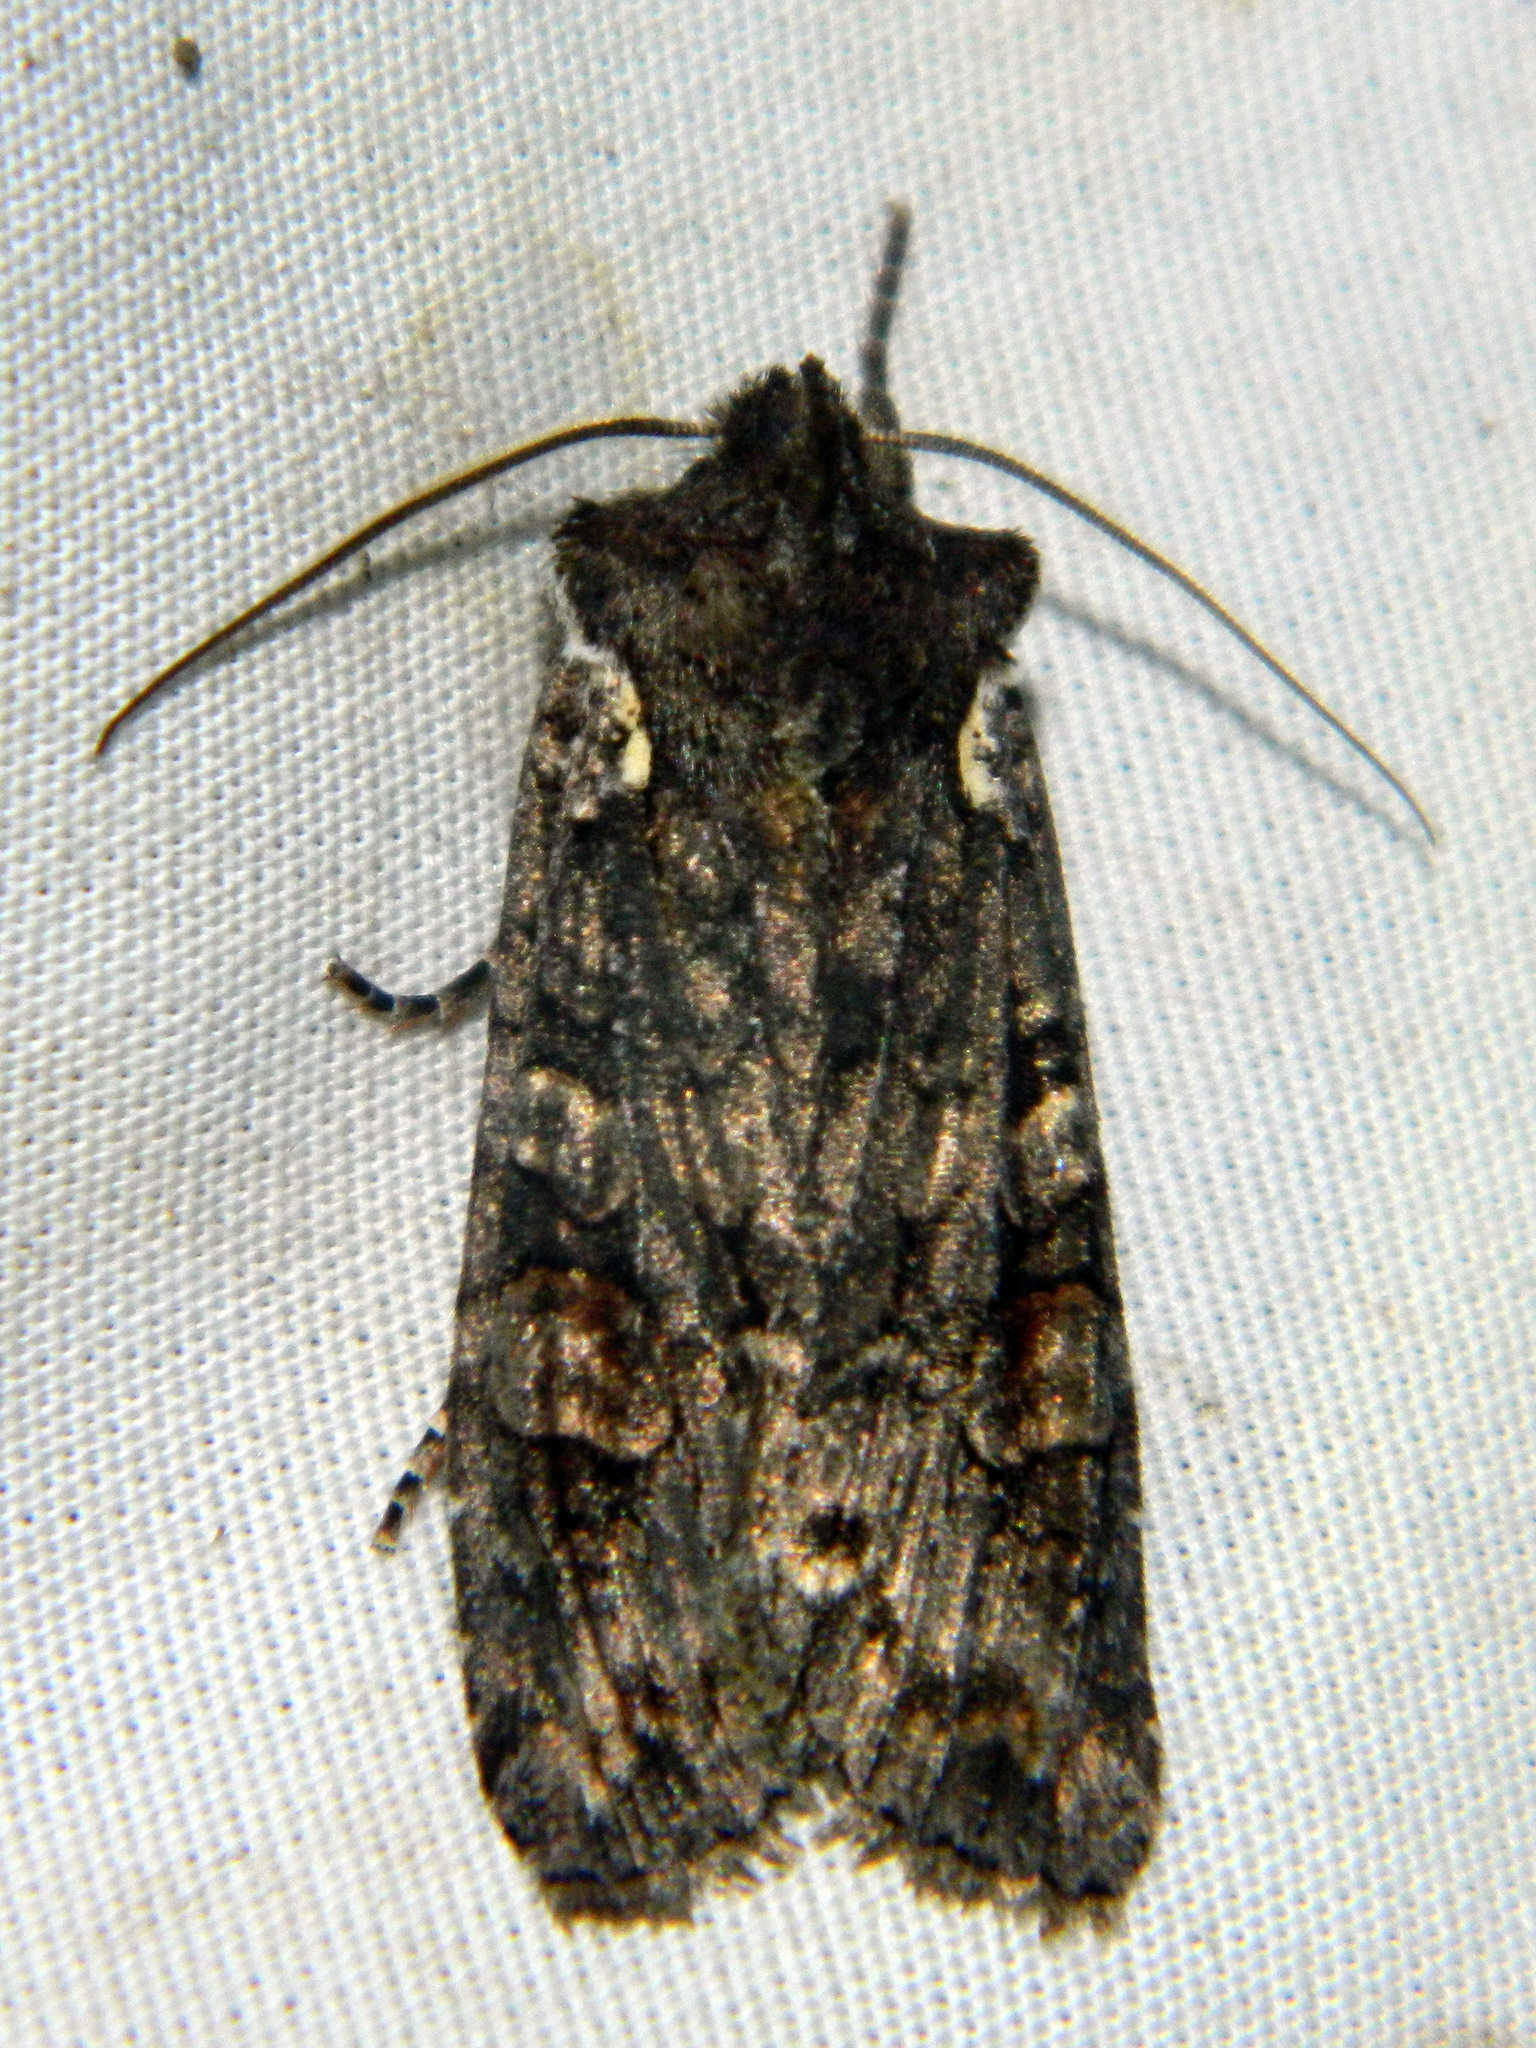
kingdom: Animalia
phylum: Arthropoda
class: Insecta
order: Lepidoptera
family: Noctuidae
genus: Lithophane
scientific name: Lithophane pexata
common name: Plush-naped pinion moth
